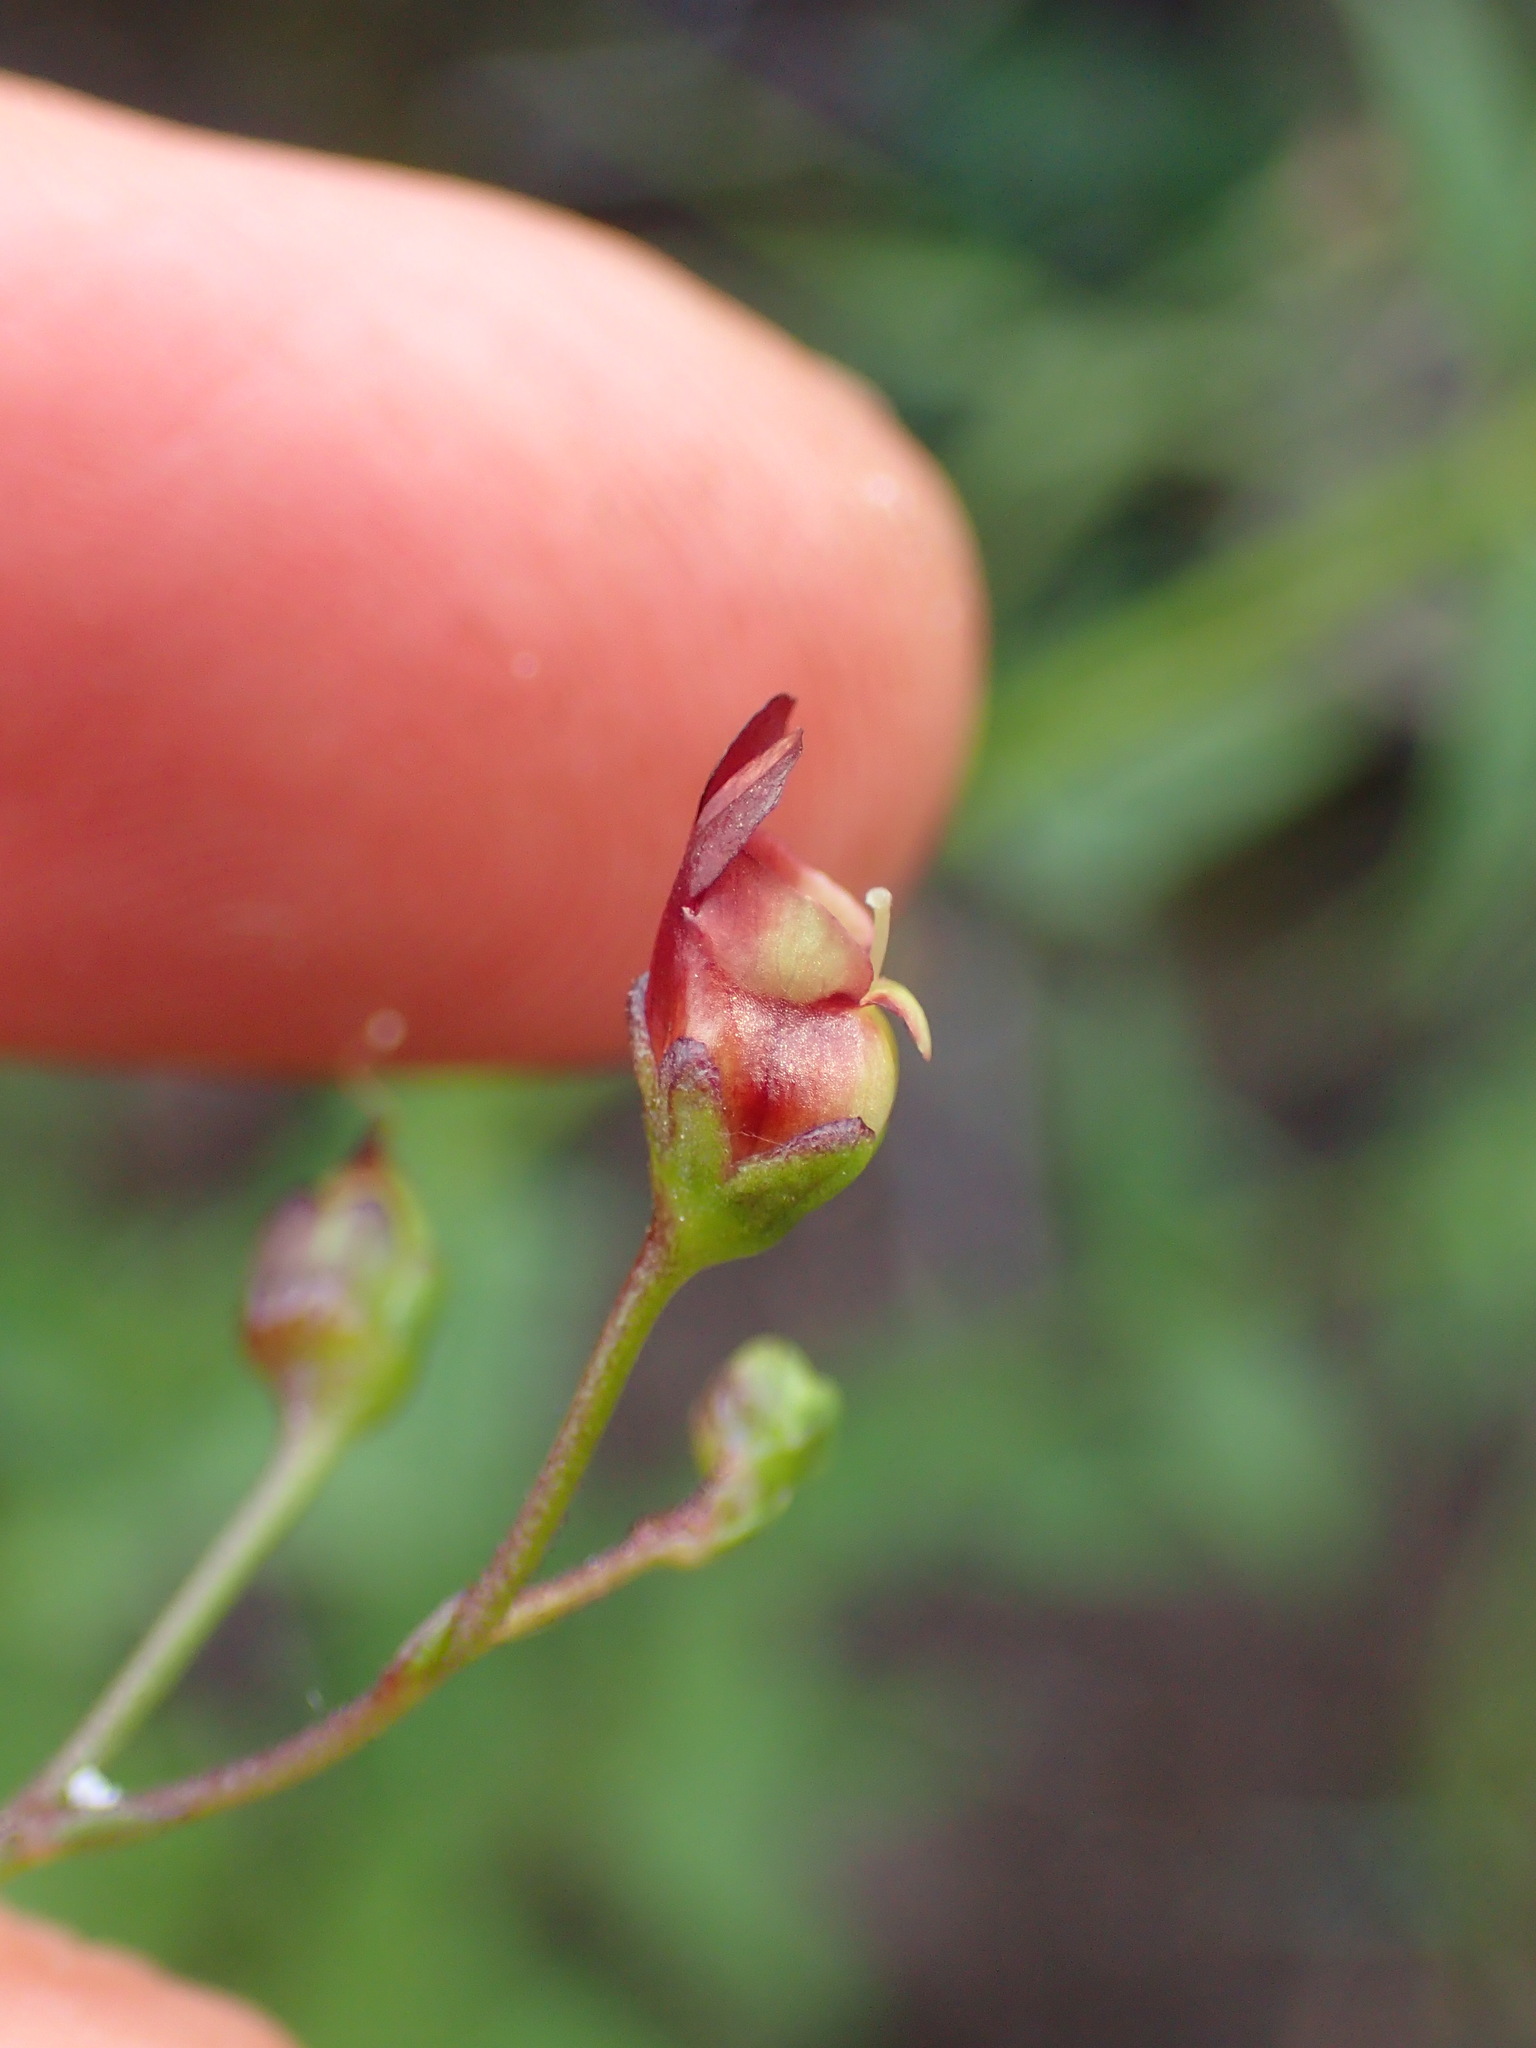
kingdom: Plantae
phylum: Tracheophyta
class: Magnoliopsida
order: Lamiales
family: Scrophulariaceae
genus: Scrophularia
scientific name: Scrophularia californica
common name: California figwort
